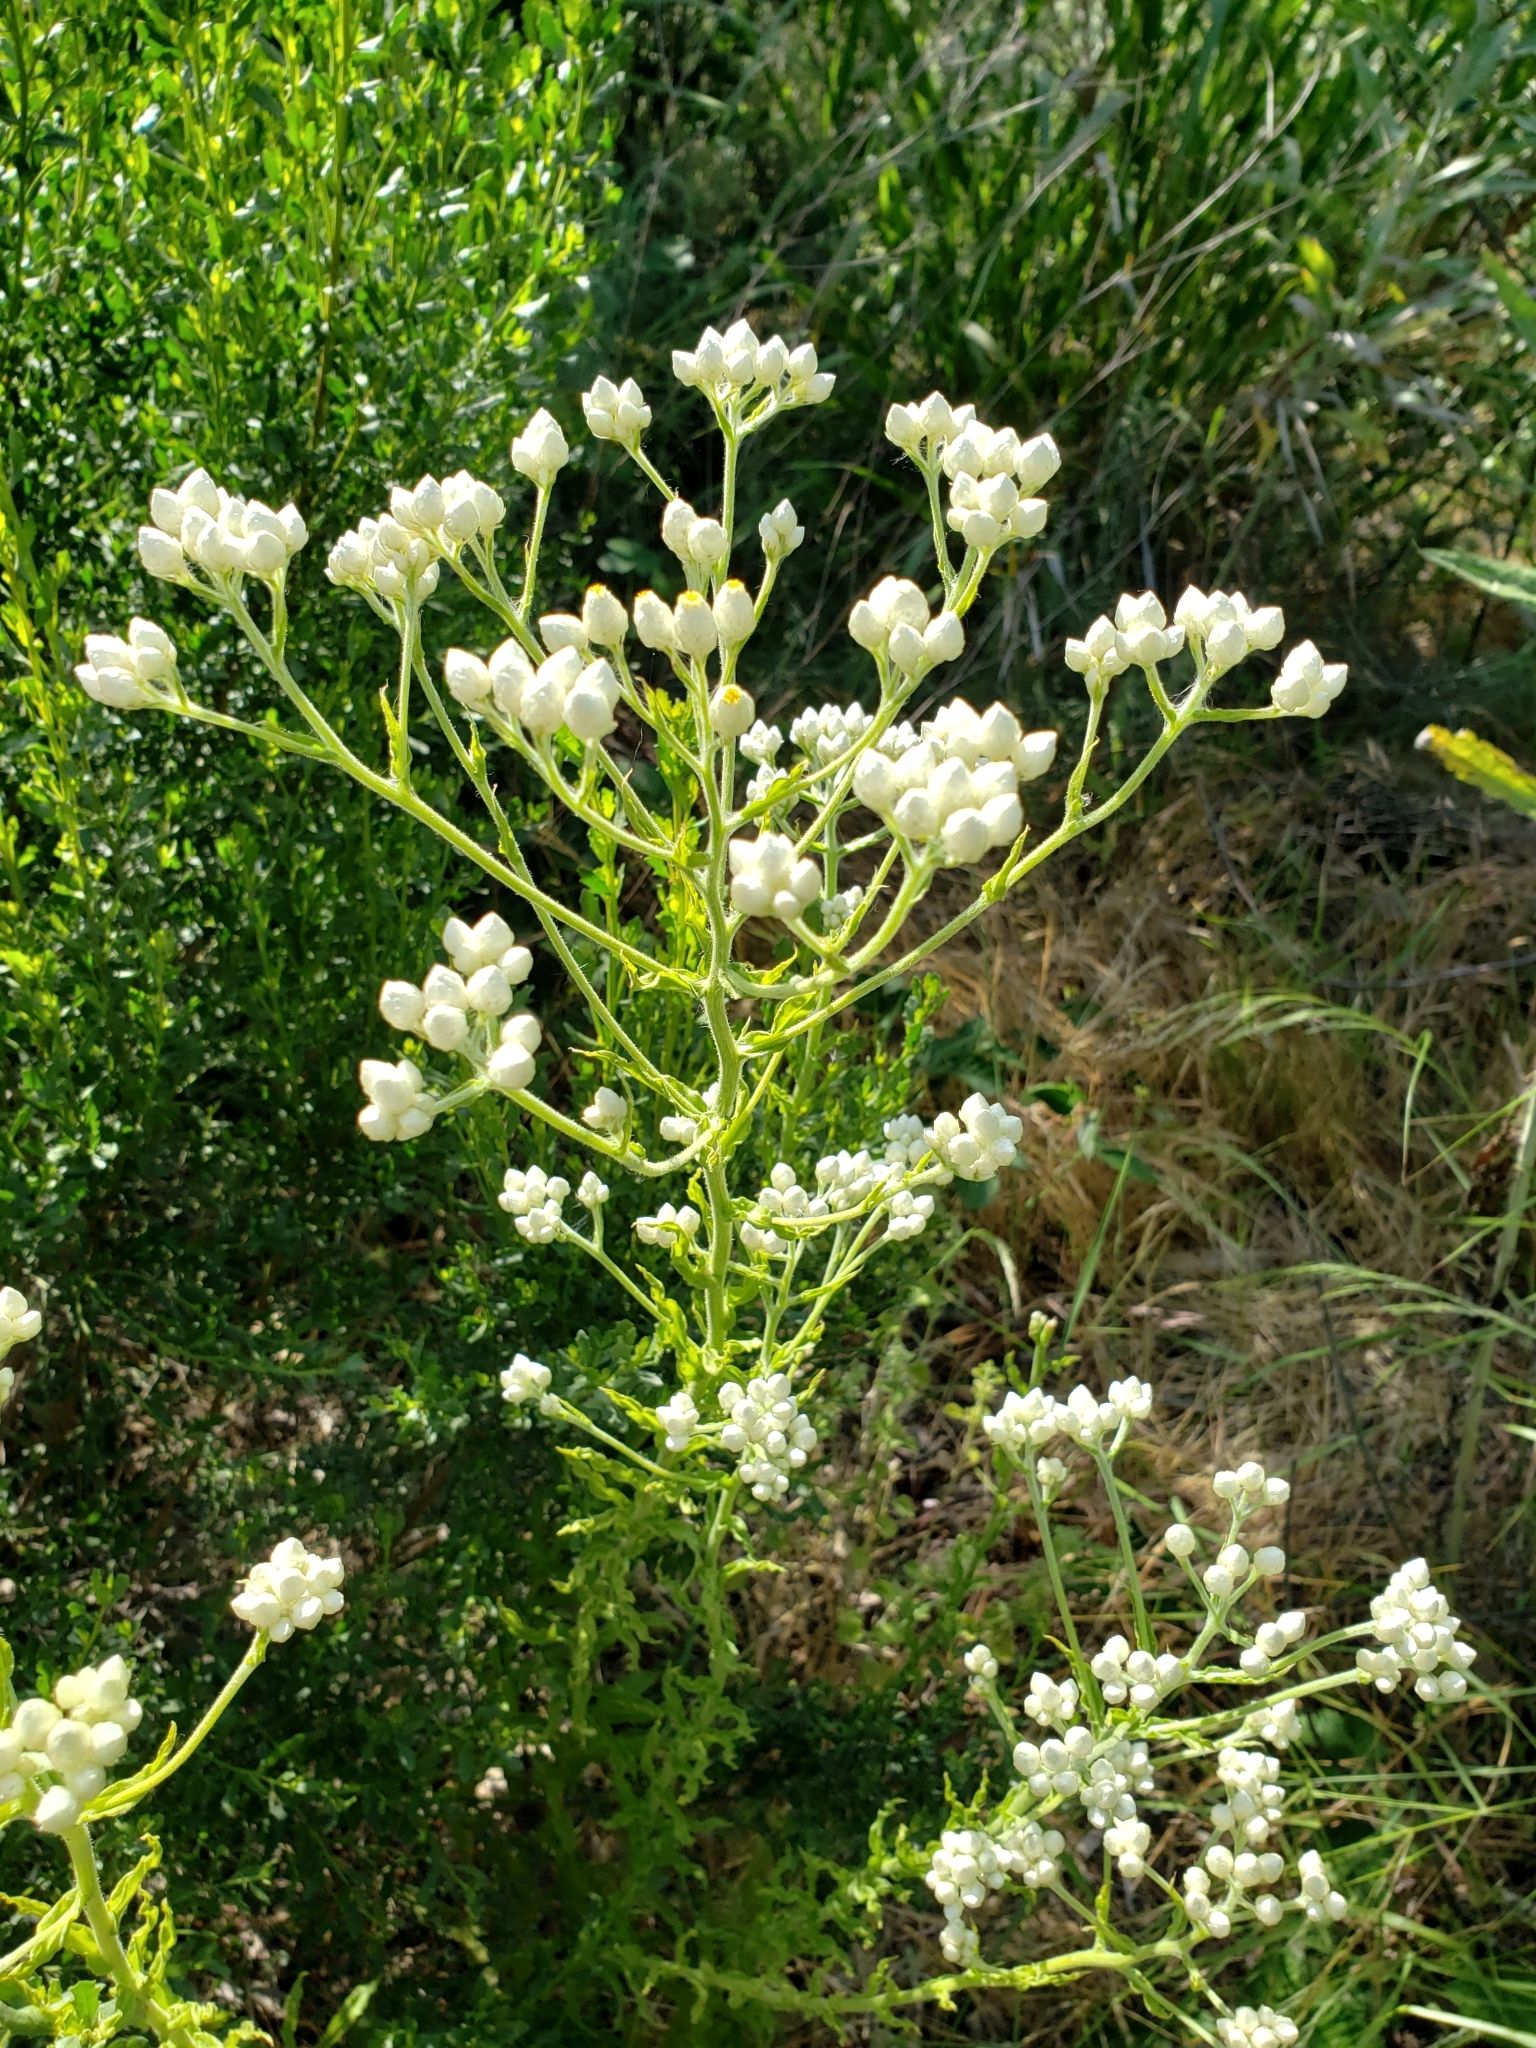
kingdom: Plantae
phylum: Tracheophyta
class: Magnoliopsida
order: Asterales
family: Asteraceae
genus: Pseudognaphalium
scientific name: Pseudognaphalium californicum
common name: California rabbit-tobacco
